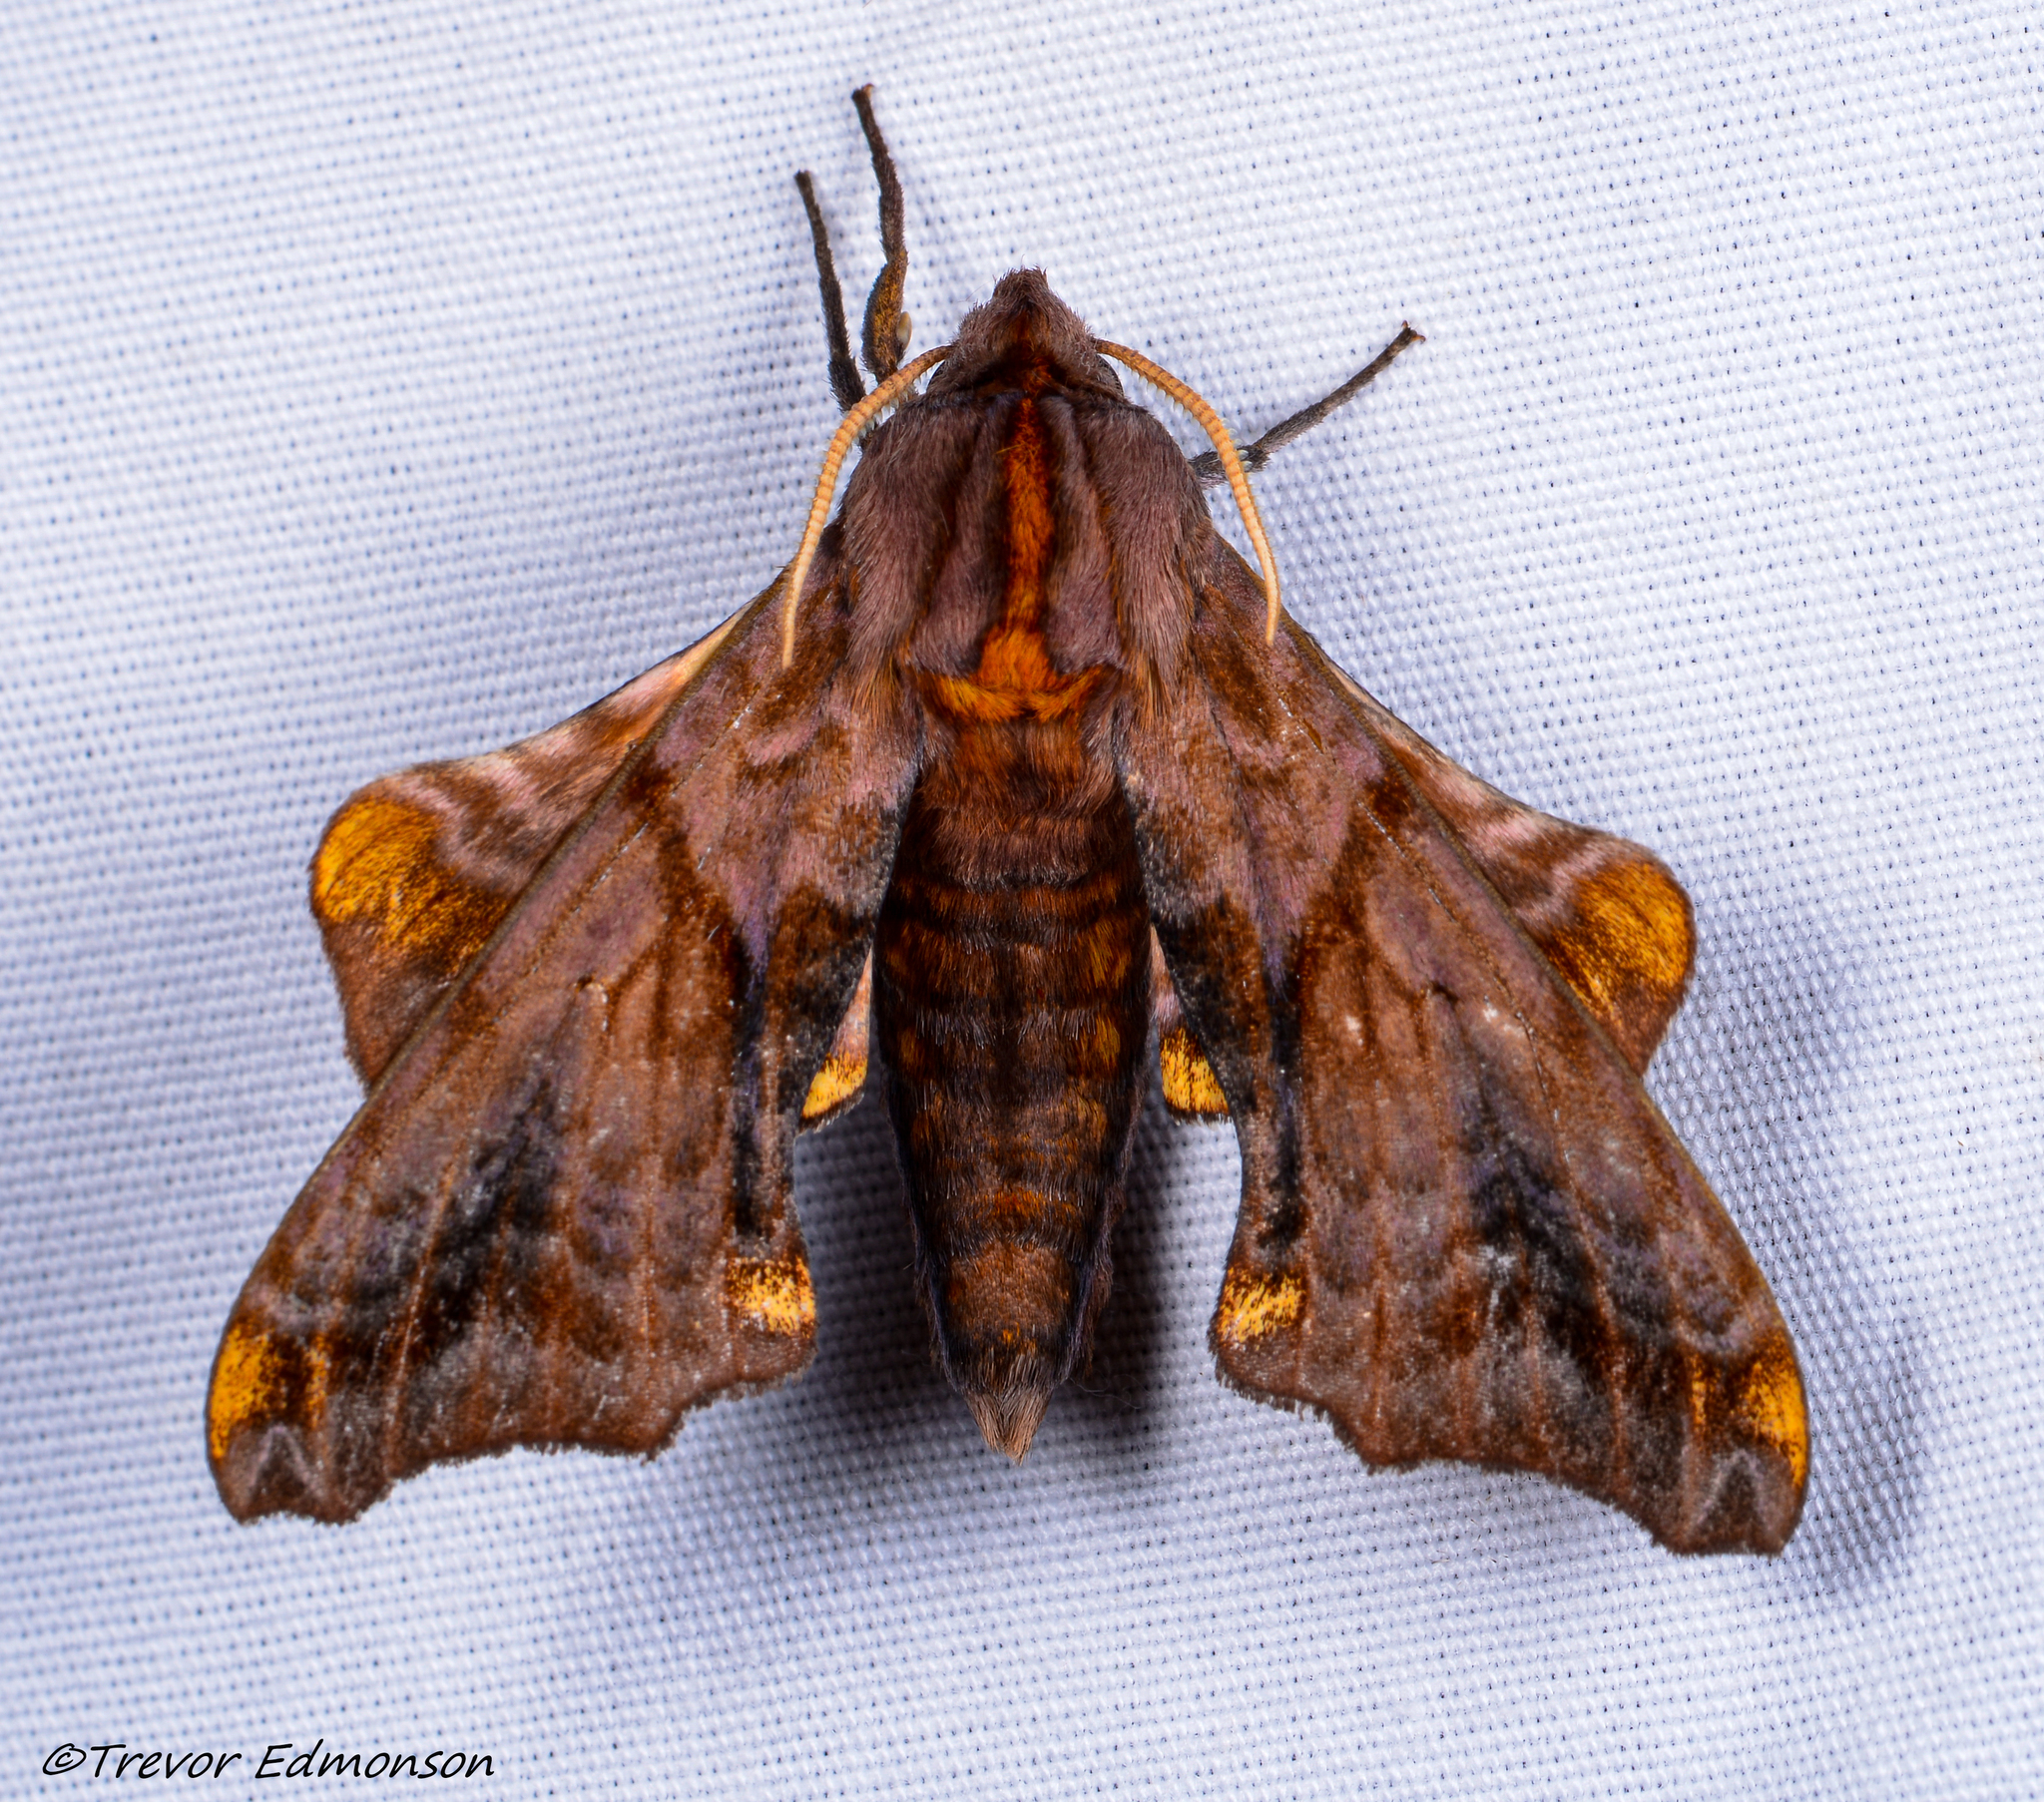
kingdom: Animalia
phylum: Arthropoda
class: Insecta
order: Lepidoptera
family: Sphingidae
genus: Paonias
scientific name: Paonias myops
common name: Small-eyed sphinx
